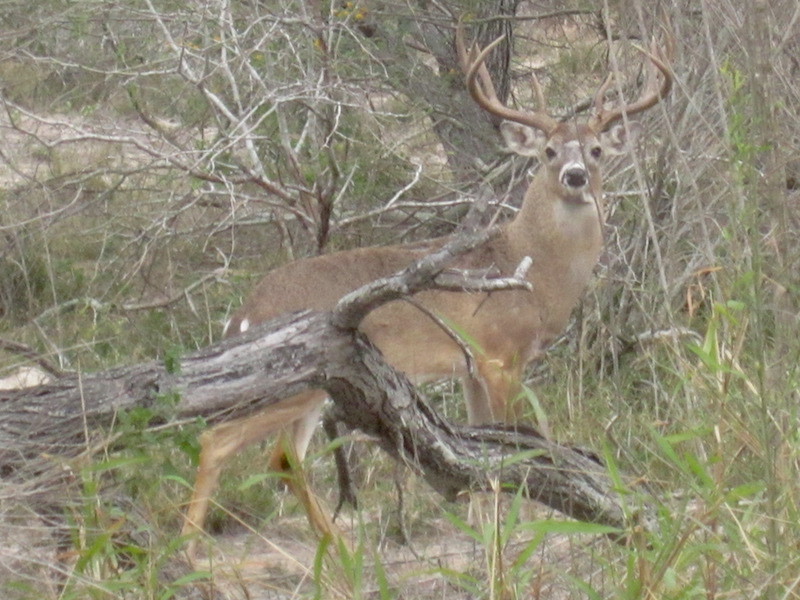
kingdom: Animalia
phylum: Chordata
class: Mammalia
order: Artiodactyla
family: Cervidae
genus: Odocoileus
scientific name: Odocoileus virginianus
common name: White-tailed deer
